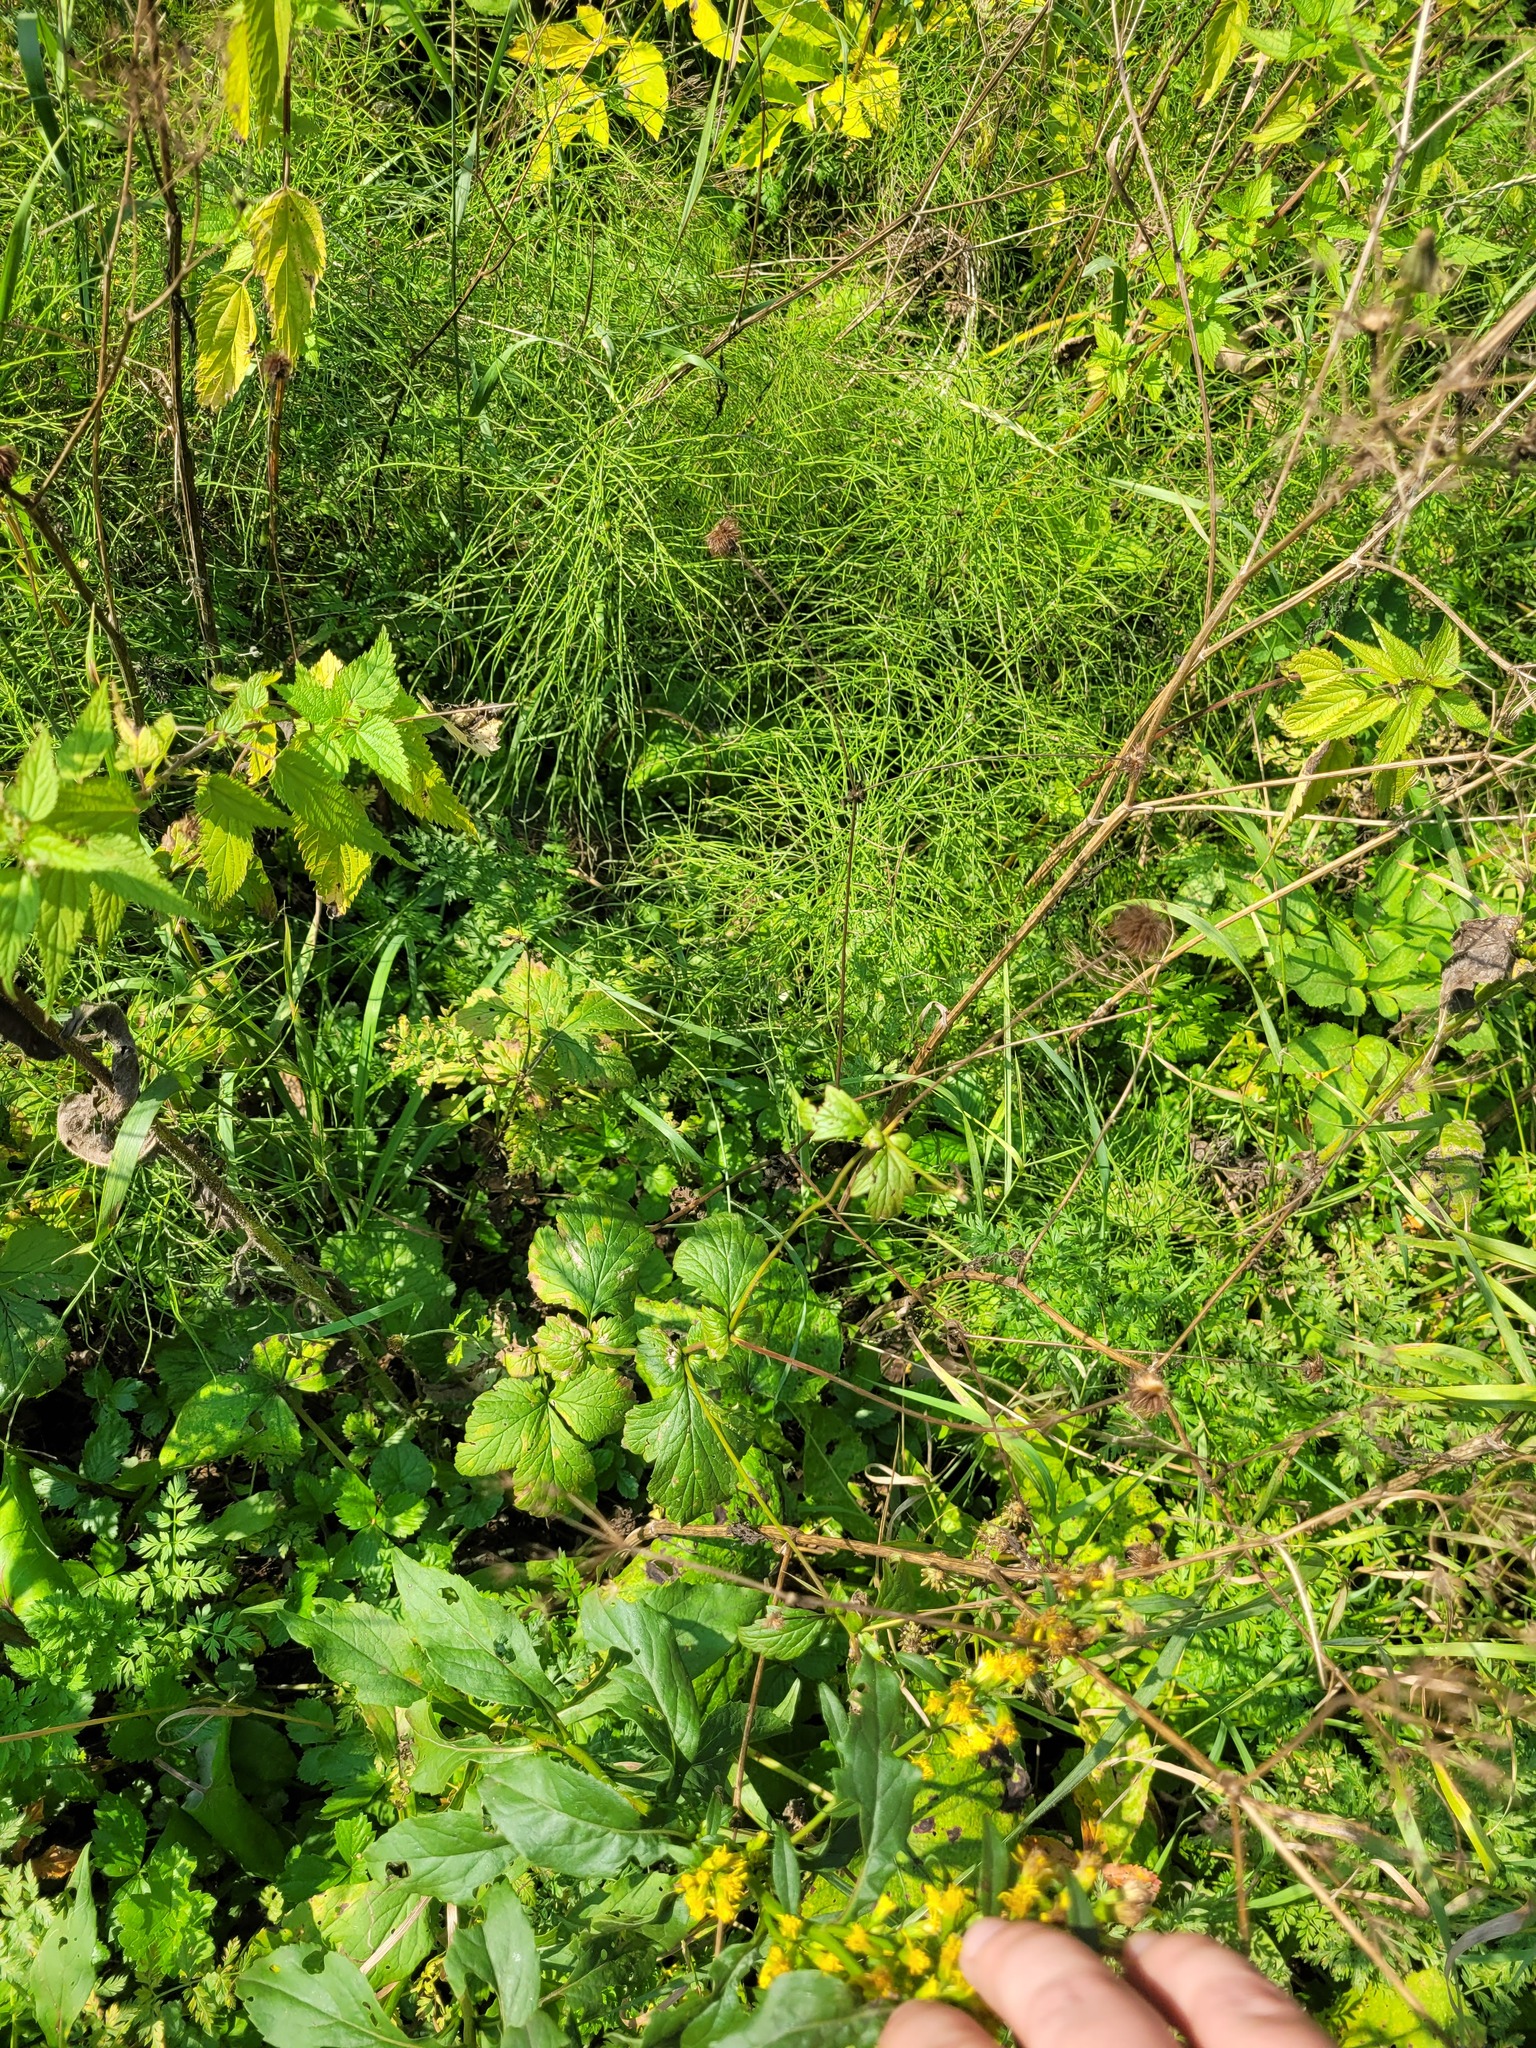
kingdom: Plantae
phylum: Tracheophyta
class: Magnoliopsida
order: Rosales
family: Rosaceae
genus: Geum
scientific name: Geum urbanum
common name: Wood avens
